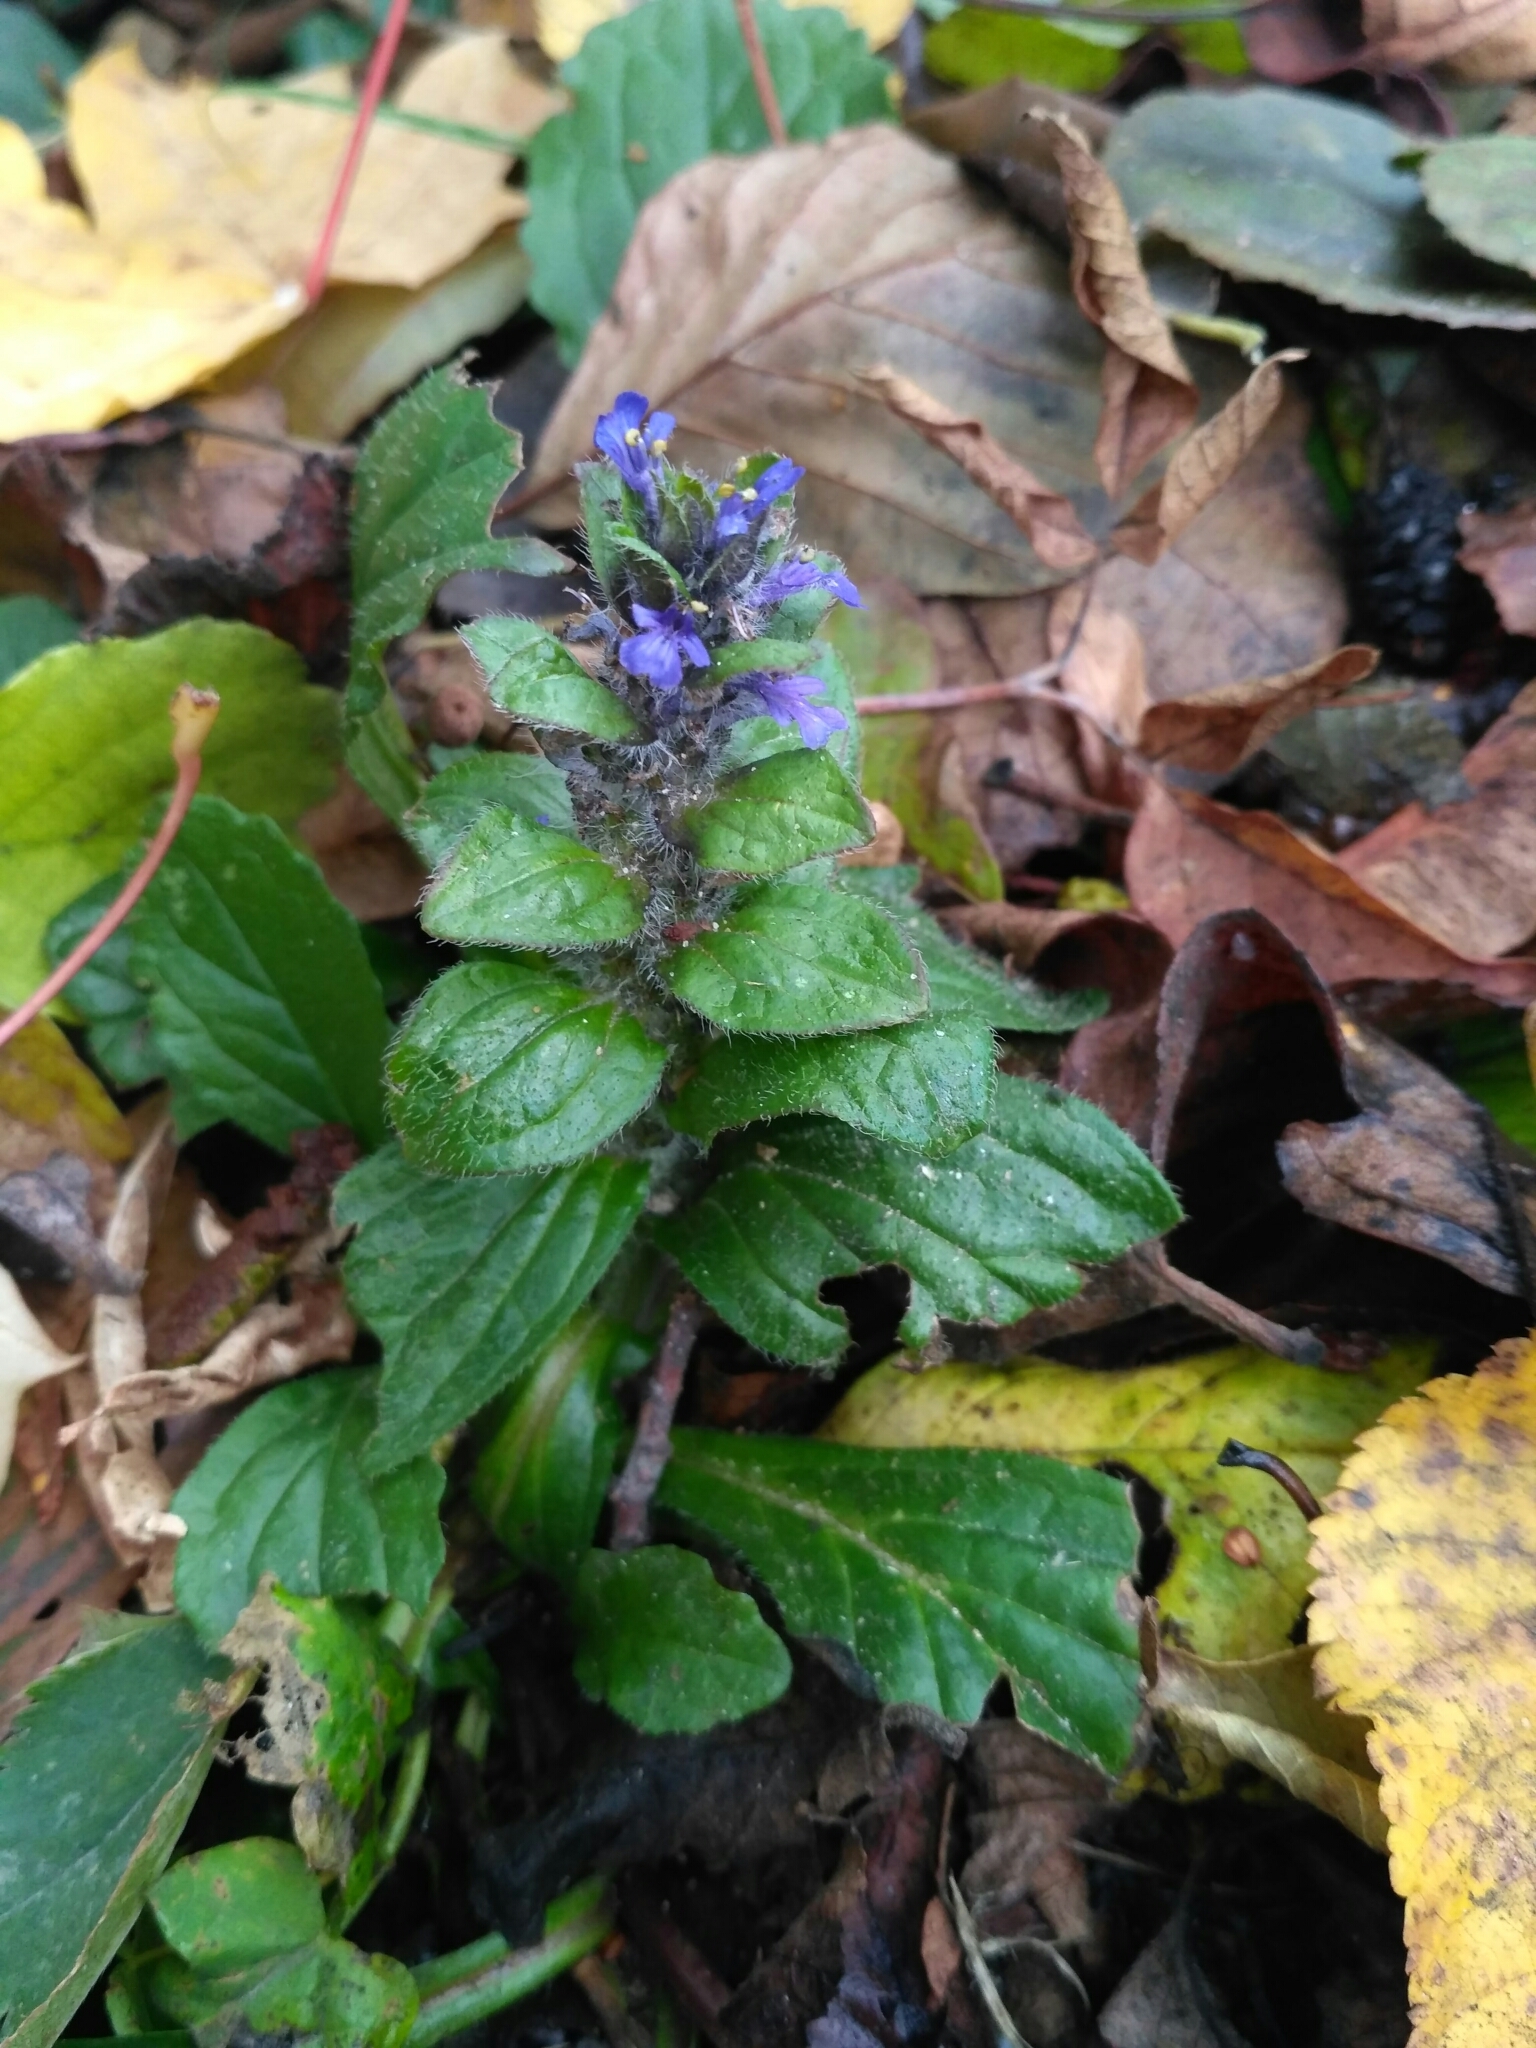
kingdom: Plantae
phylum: Tracheophyta
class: Magnoliopsida
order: Lamiales
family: Lamiaceae
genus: Ajuga
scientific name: Ajuga reptans
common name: Bugle
